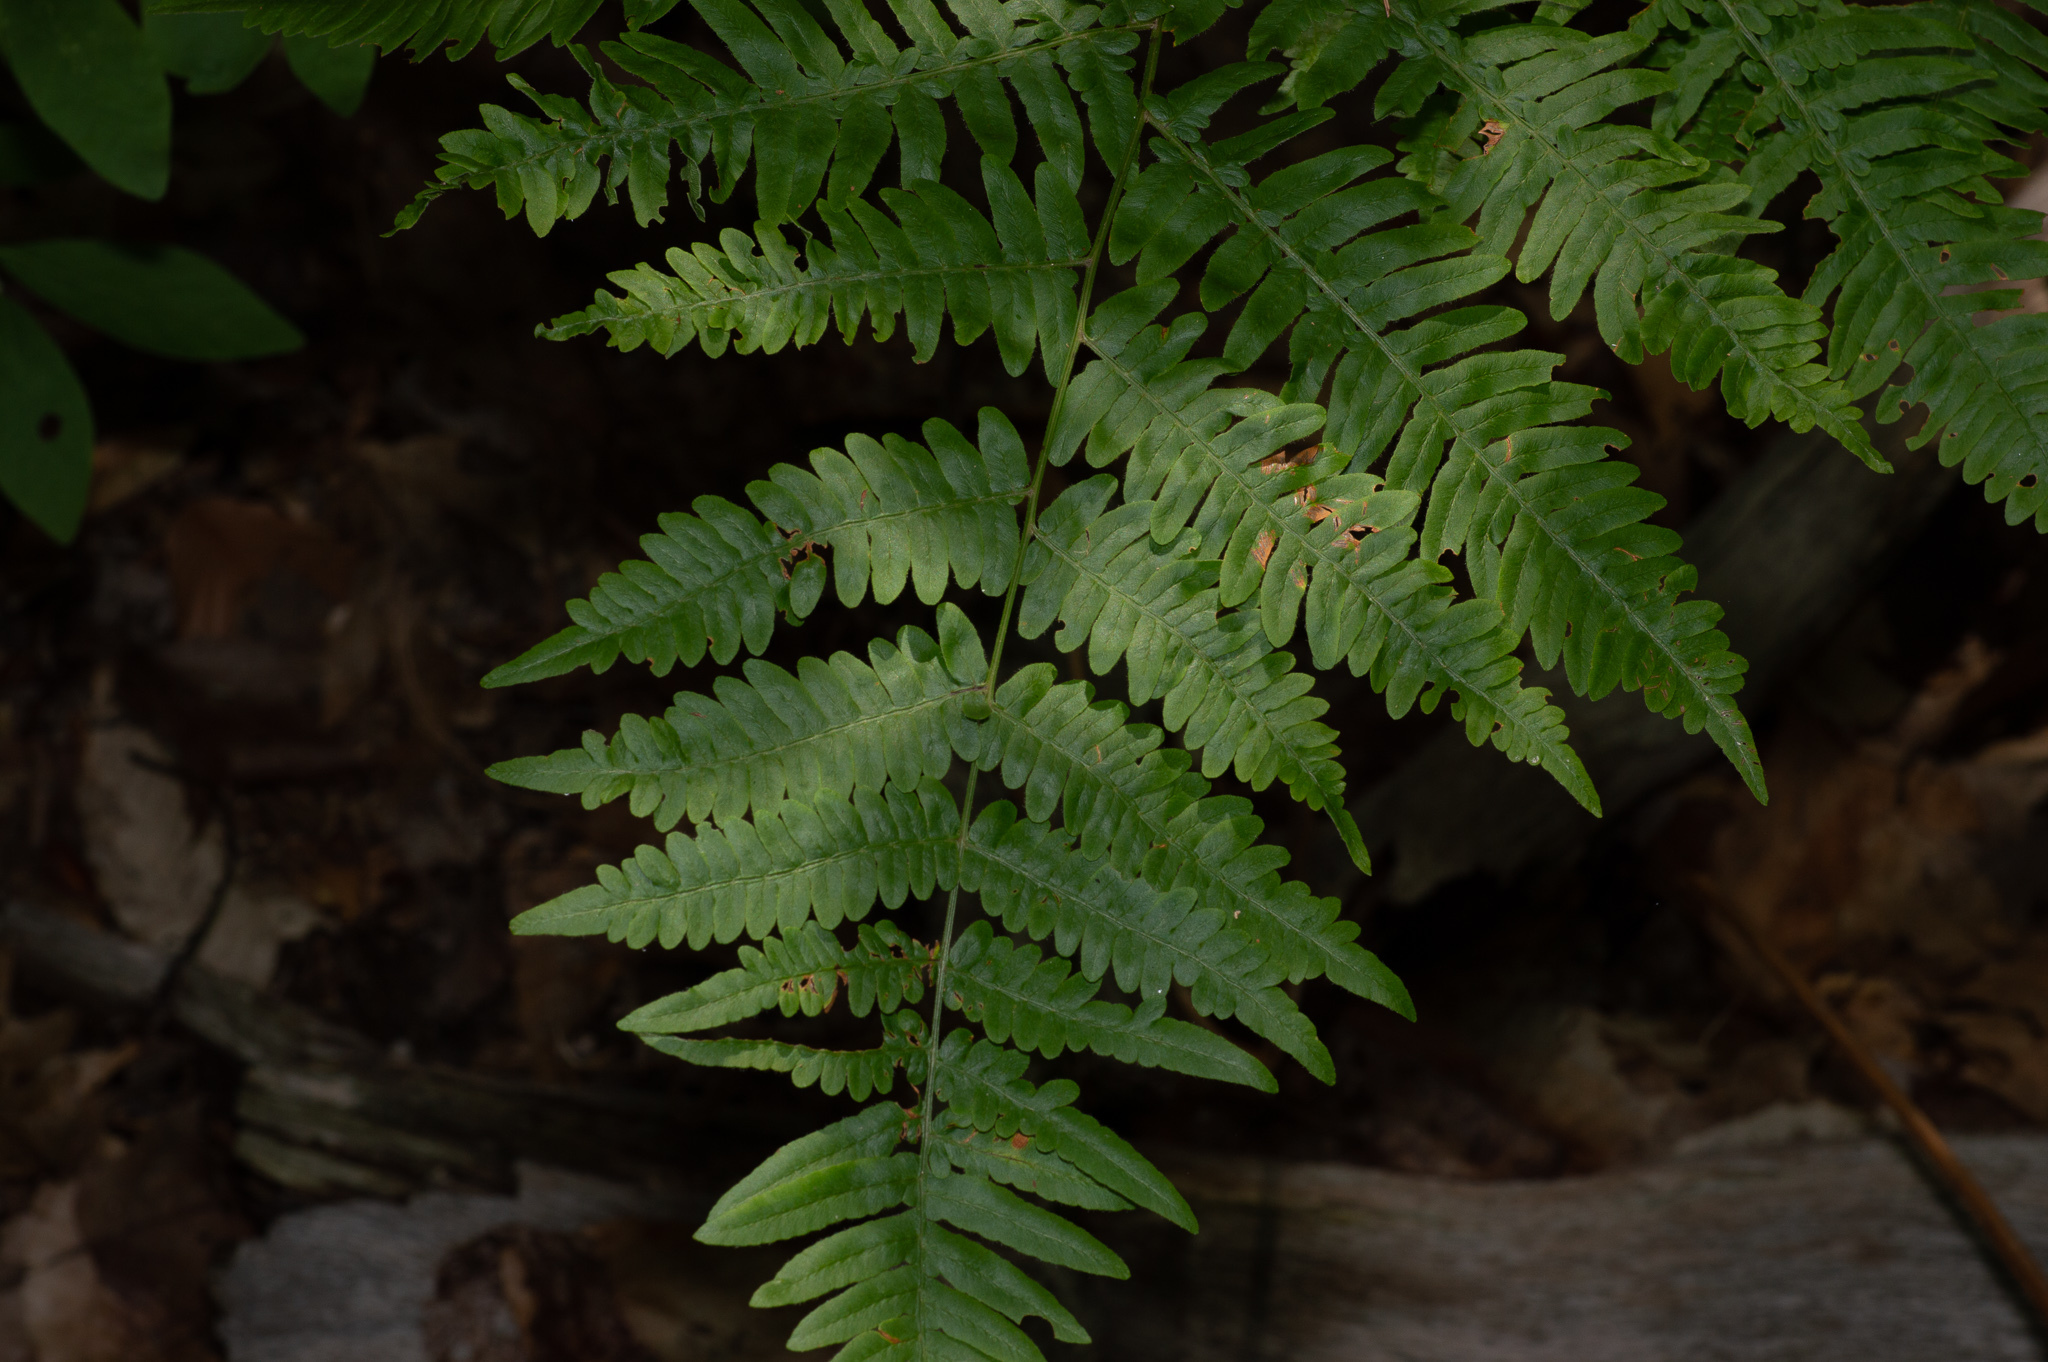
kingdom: Plantae
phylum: Tracheophyta
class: Polypodiopsida
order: Polypodiales
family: Dennstaedtiaceae
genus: Pteridium
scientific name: Pteridium aquilinum
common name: Bracken
